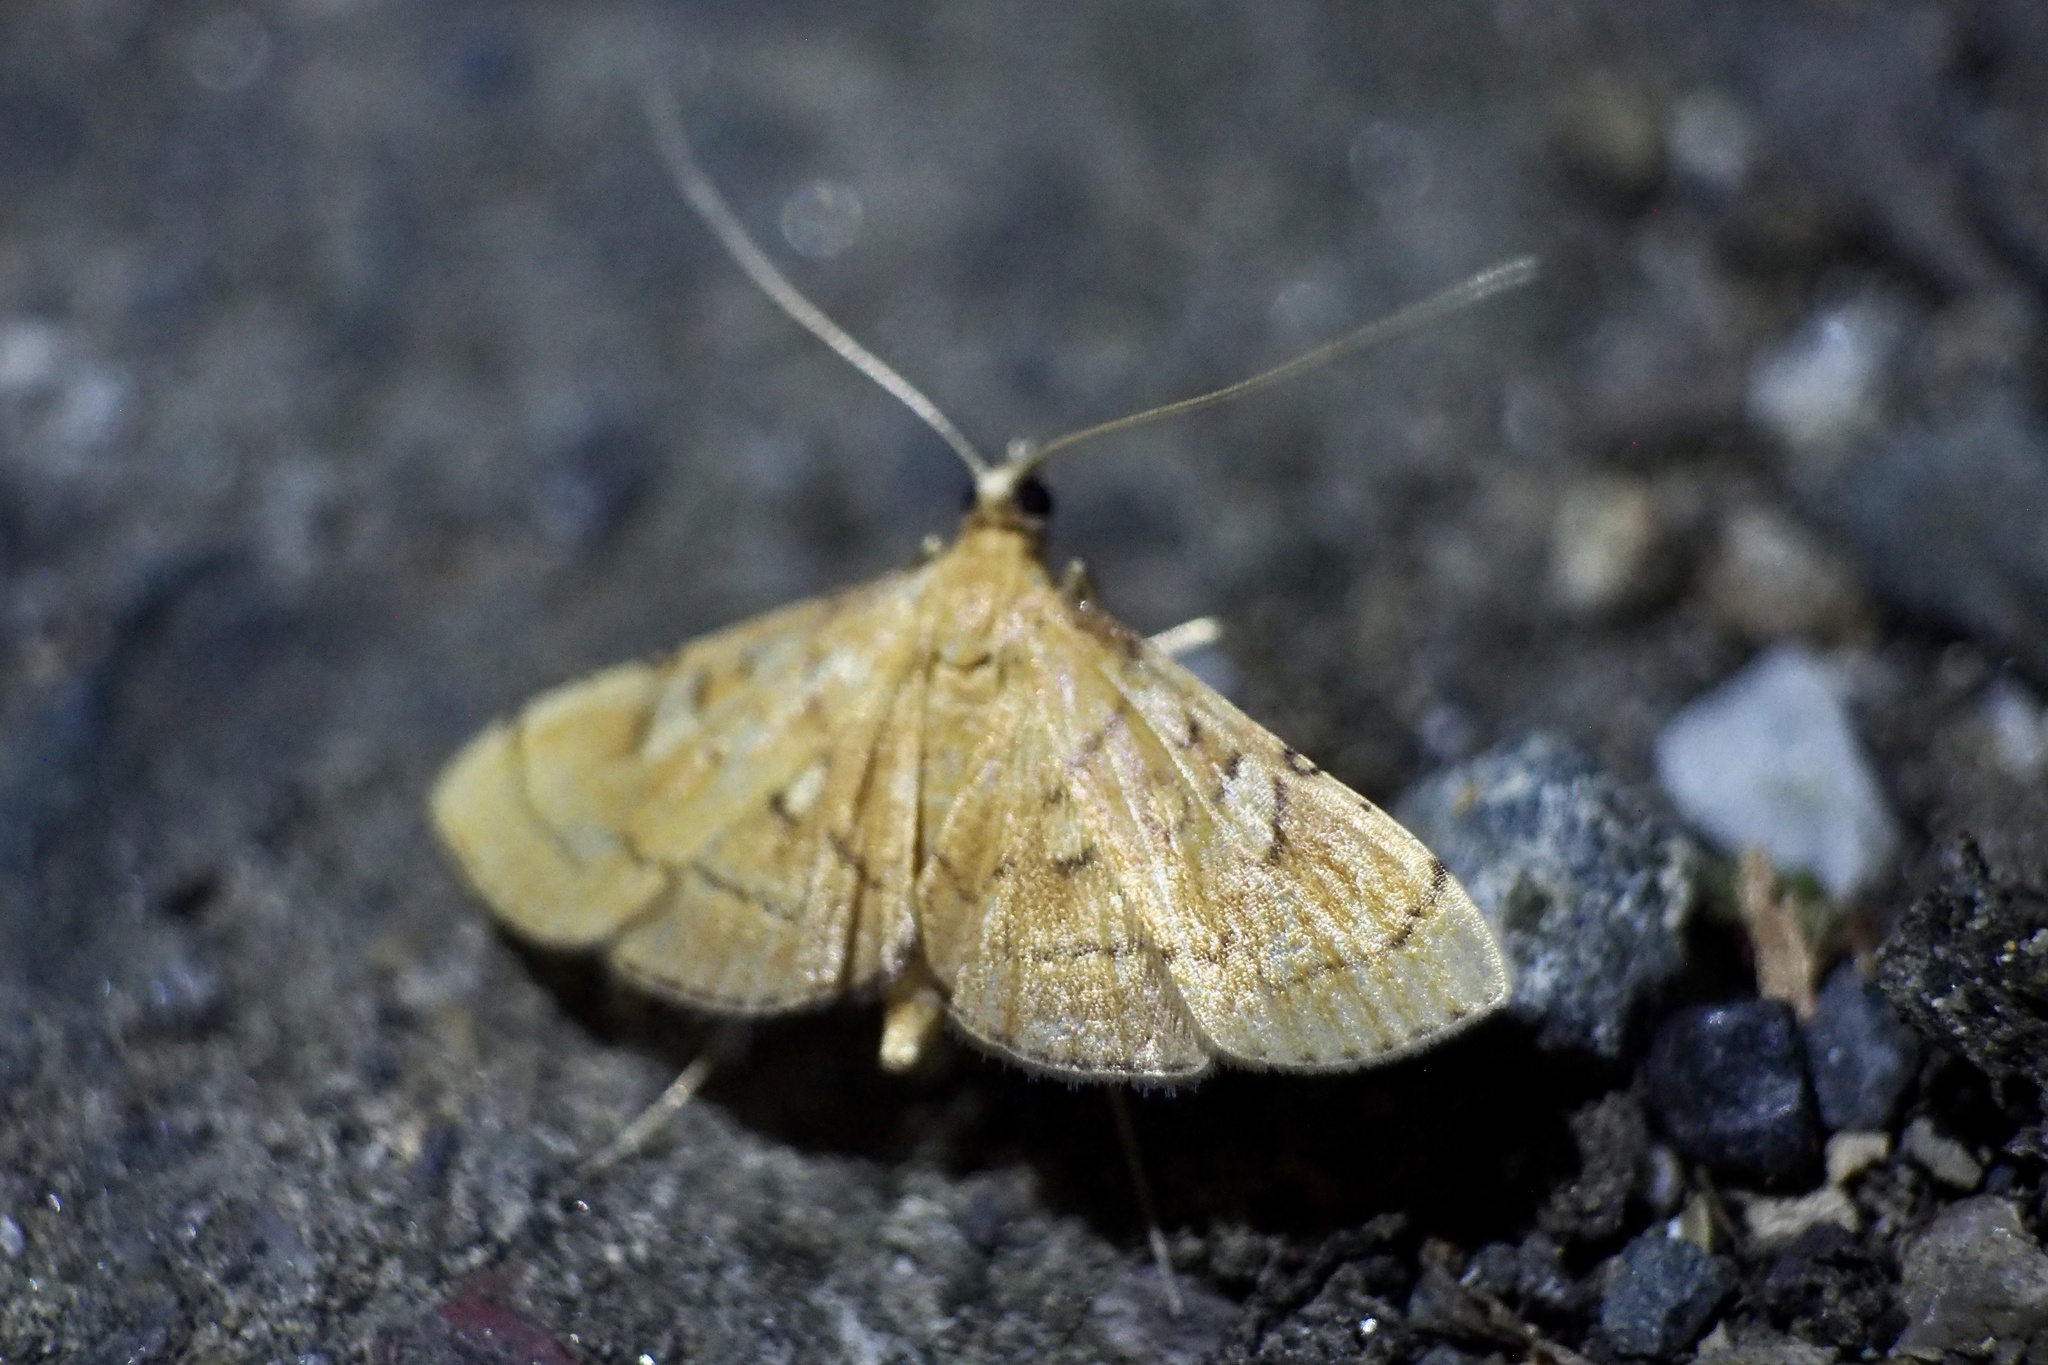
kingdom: Animalia
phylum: Arthropoda
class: Insecta
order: Lepidoptera
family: Crambidae
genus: Mabra
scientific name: Mabra charonialis
